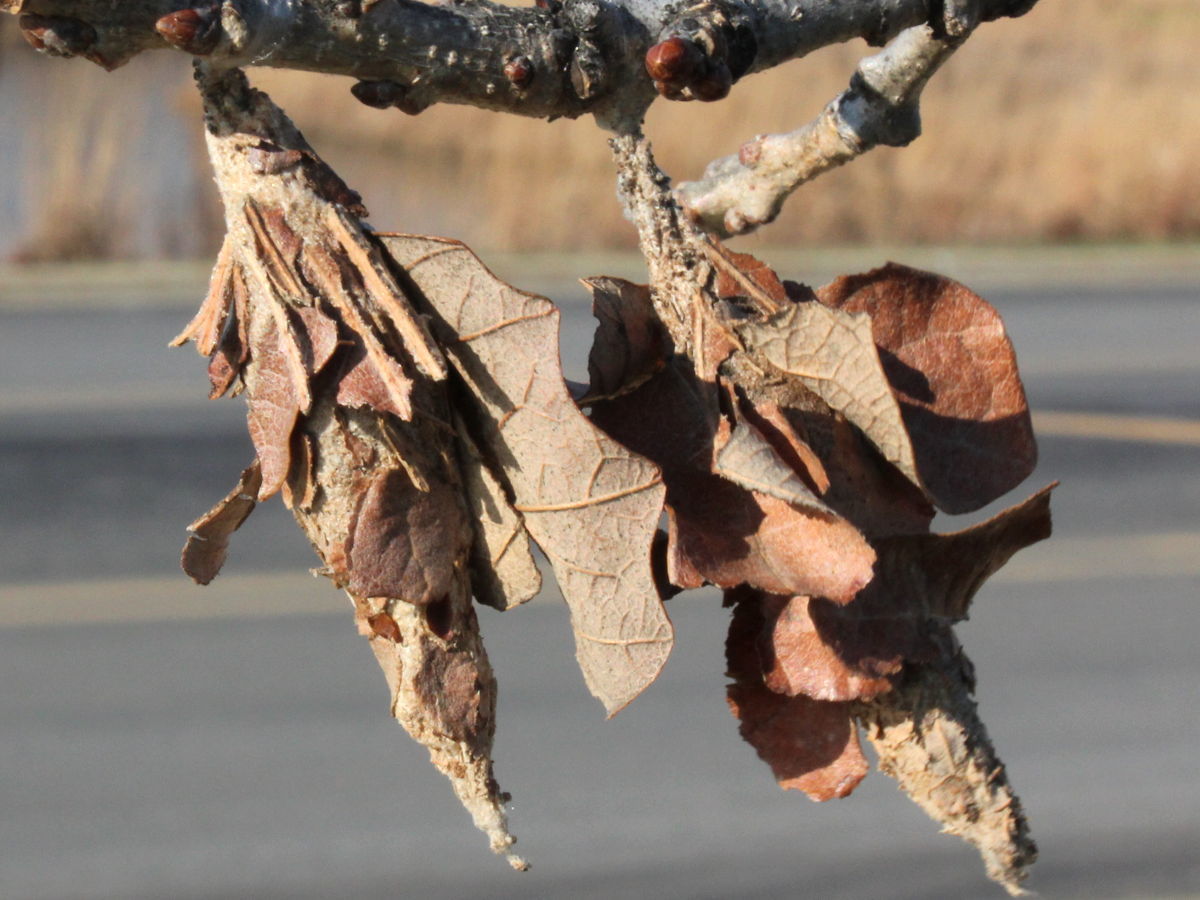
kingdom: Animalia
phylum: Arthropoda
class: Insecta
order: Lepidoptera
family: Psychidae
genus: Thyridopteryx
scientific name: Thyridopteryx ephemeraeformis
